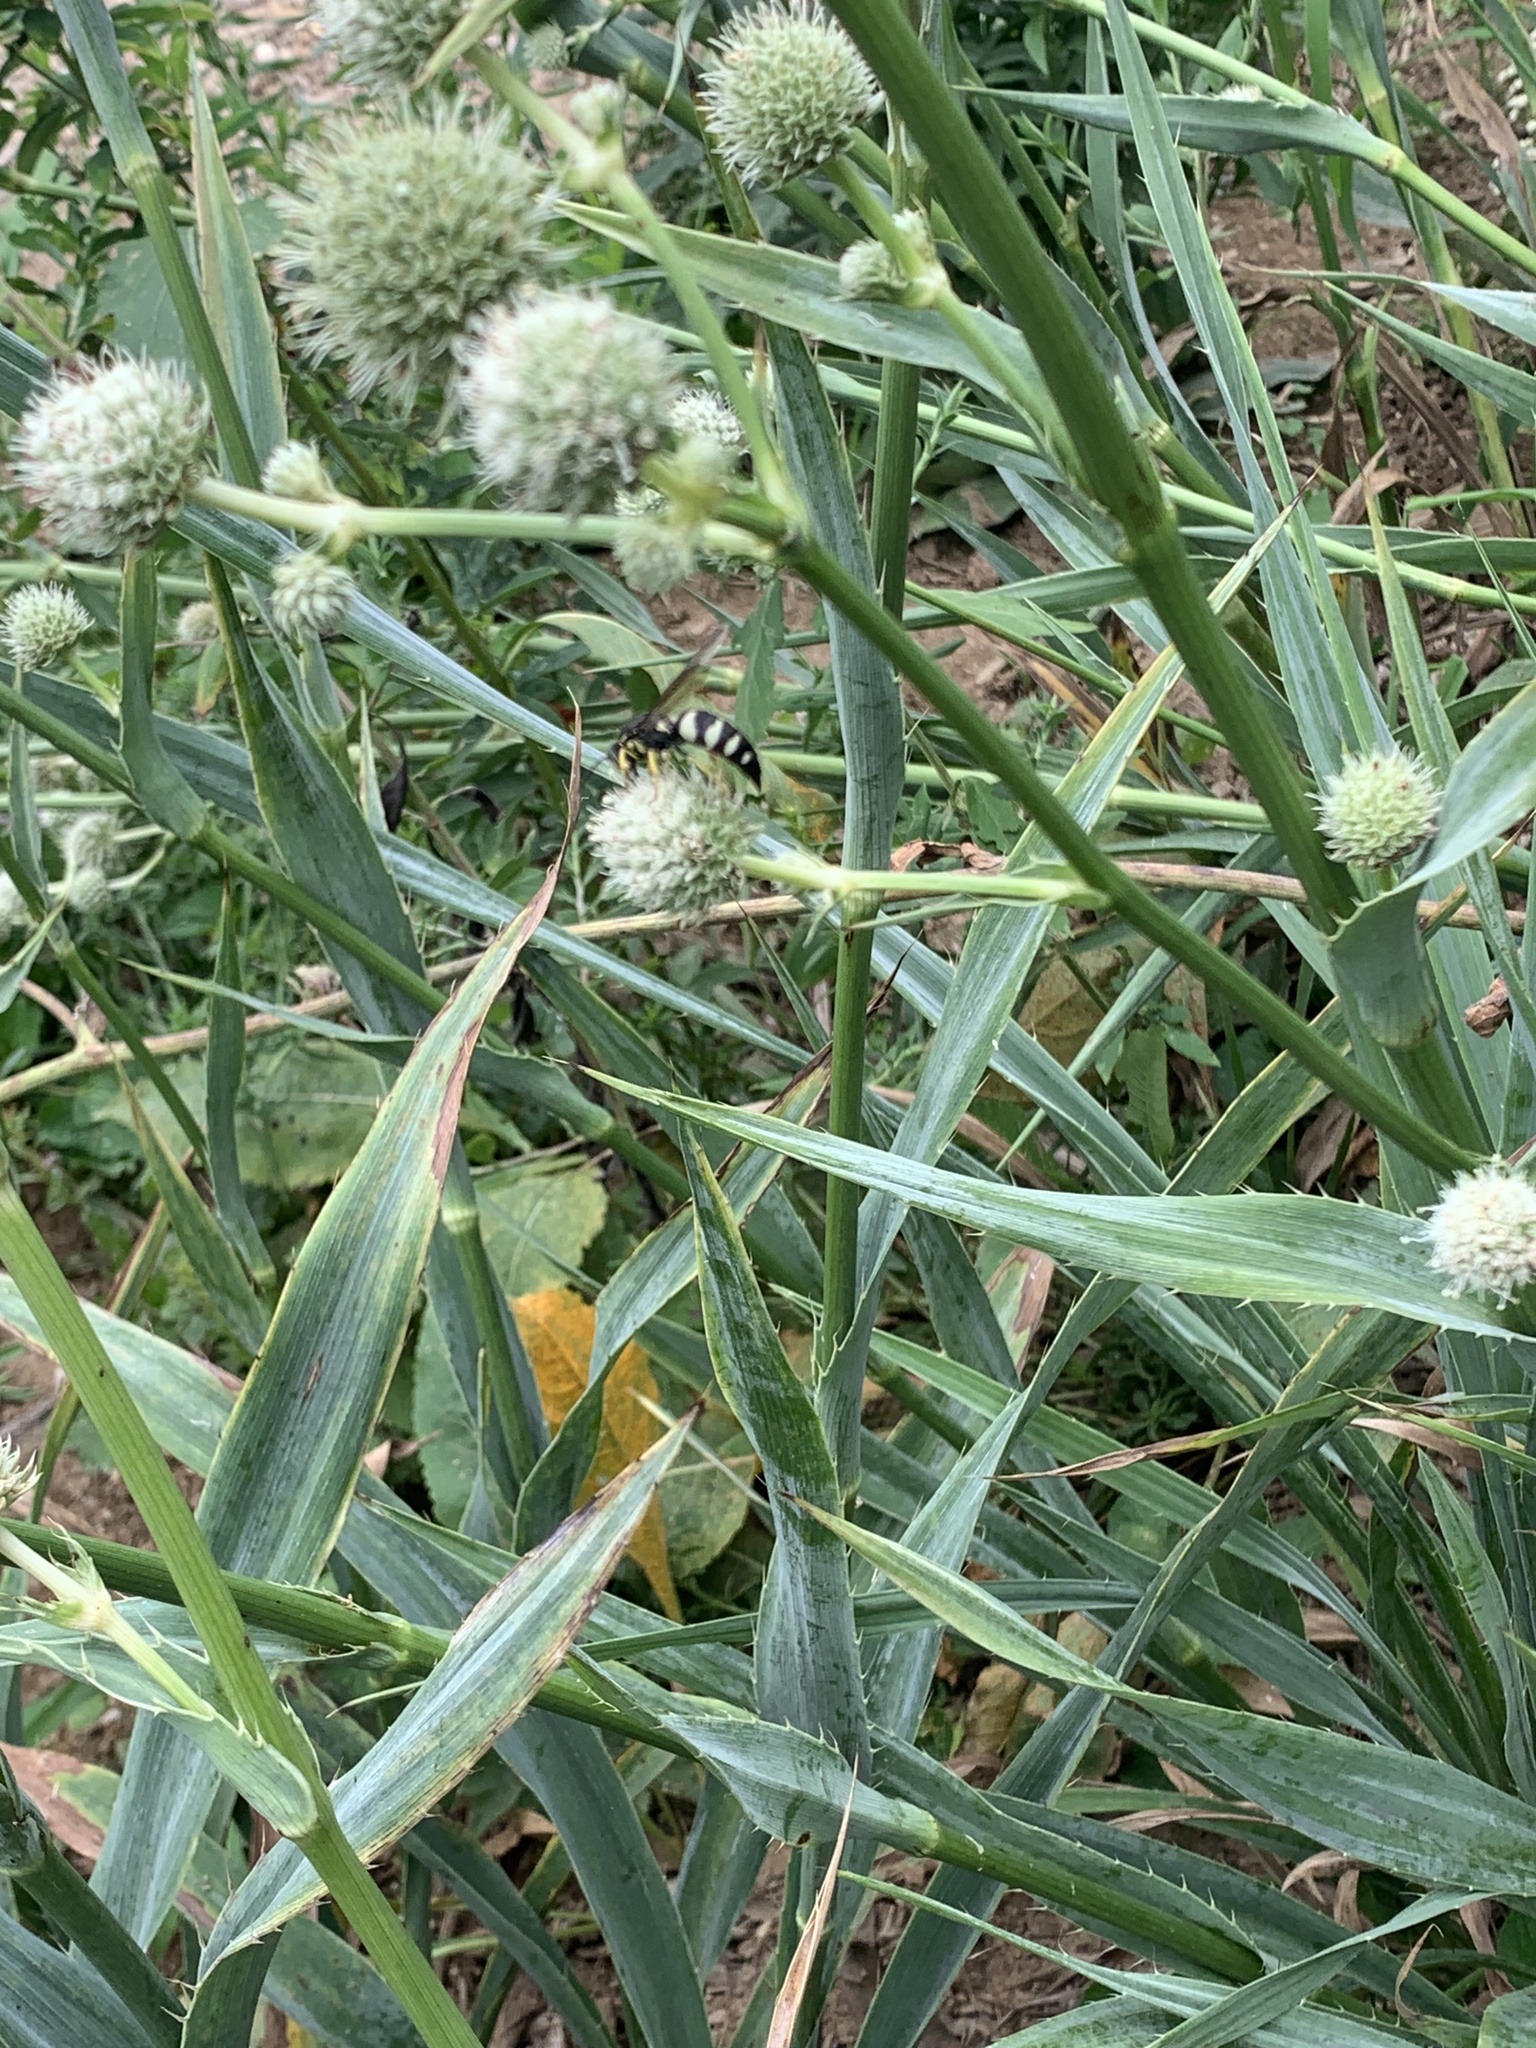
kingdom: Animalia
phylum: Arthropoda
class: Insecta
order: Hymenoptera
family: Crabronidae
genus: Bicyrtes
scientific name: Bicyrtes quadrifasciatus
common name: Four-banded stink bug hunter wasp
